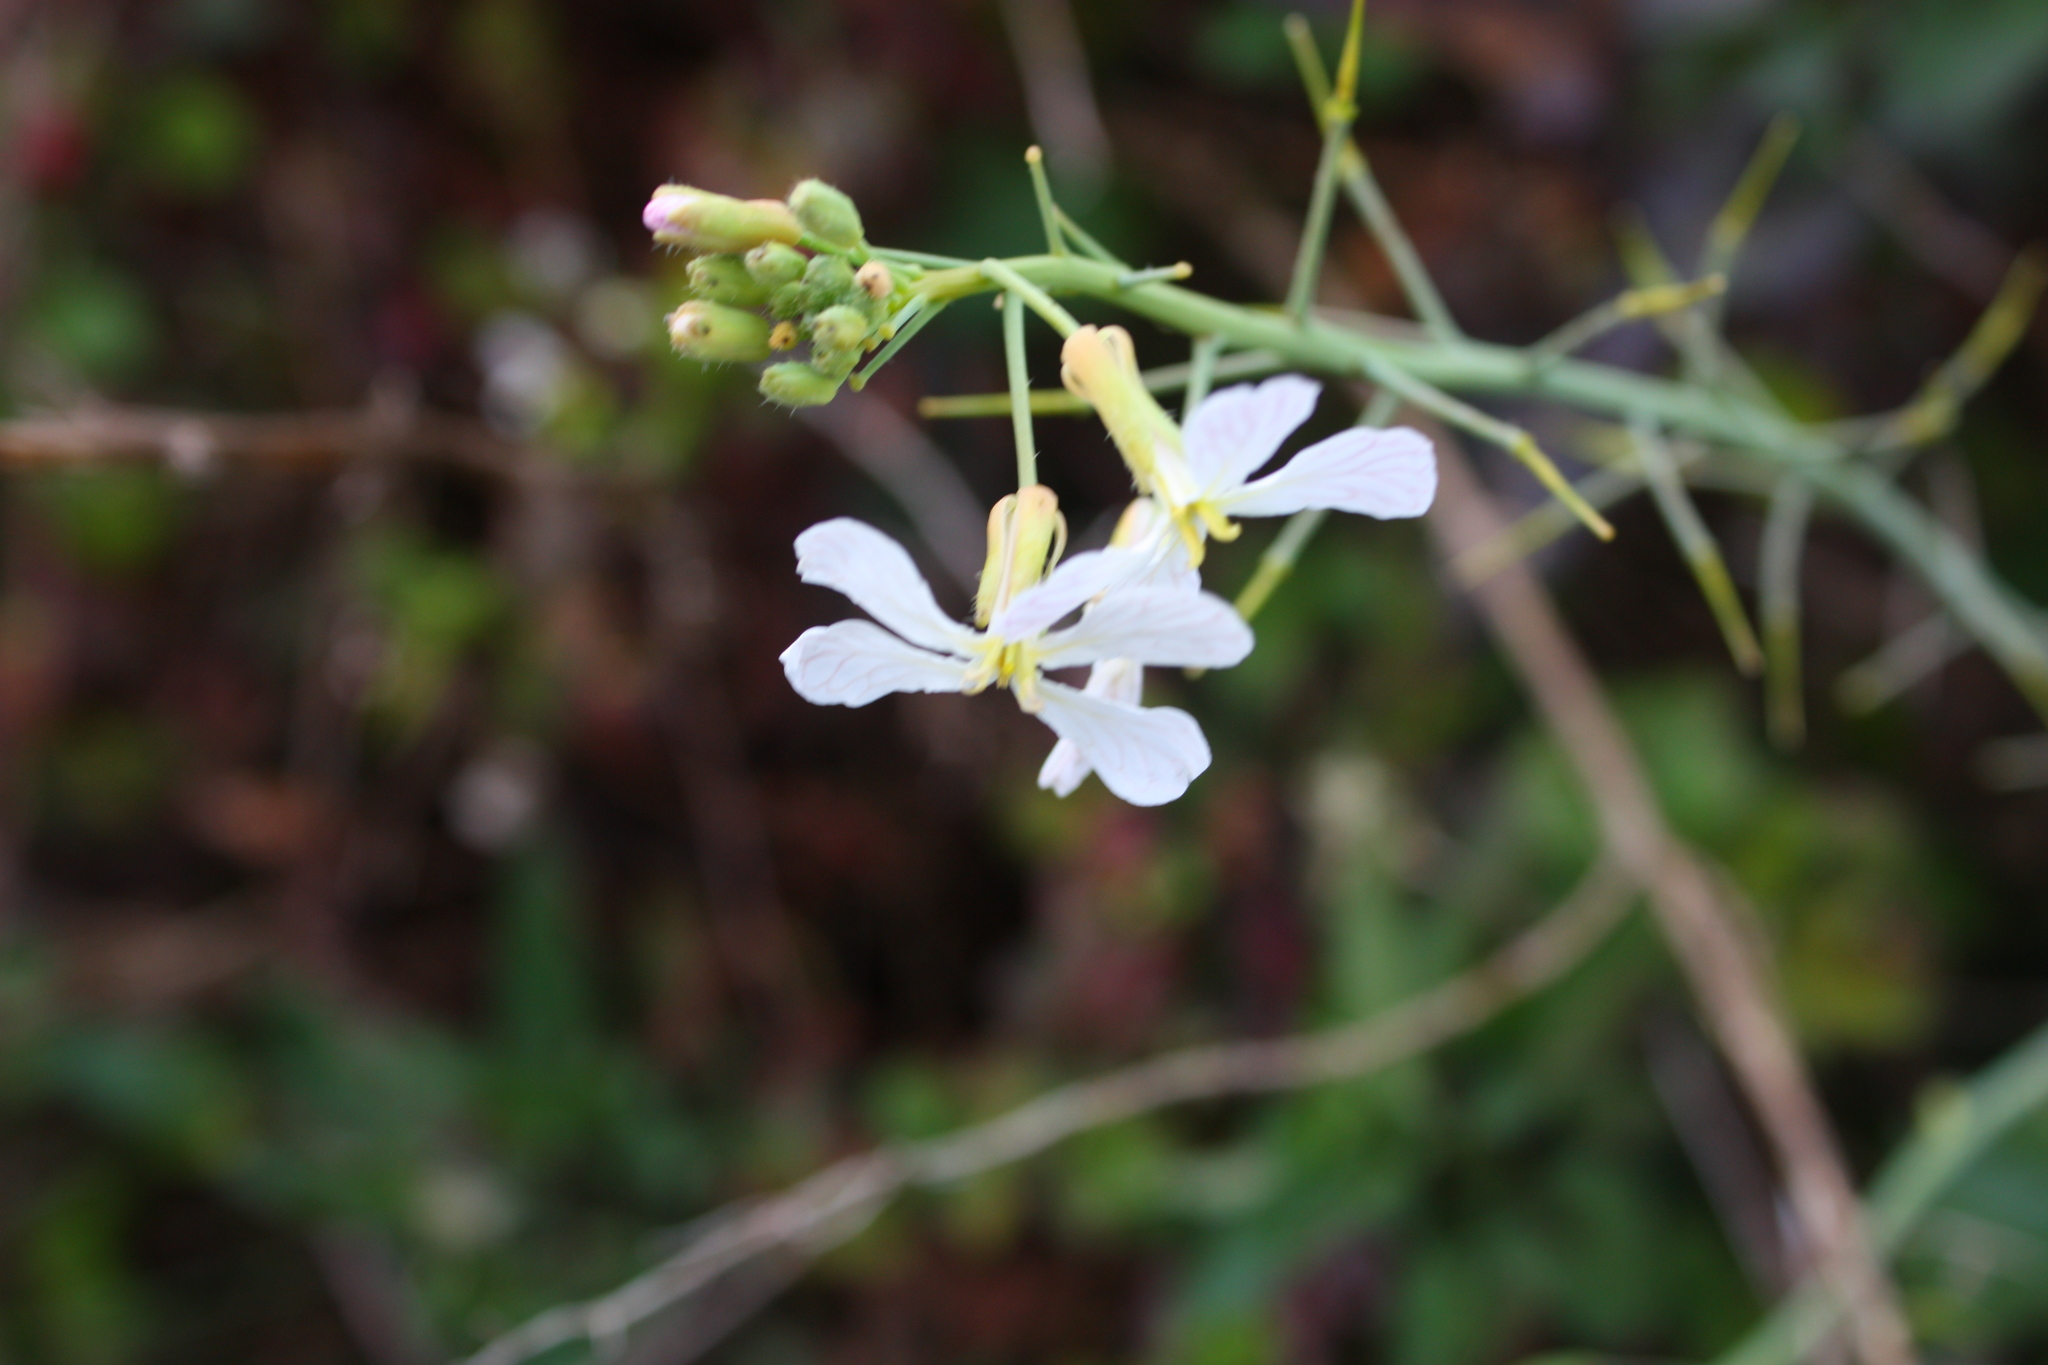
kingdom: Plantae
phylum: Tracheophyta
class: Magnoliopsida
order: Brassicales
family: Brassicaceae
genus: Raphanus
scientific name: Raphanus sativus
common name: Cultivated radish
